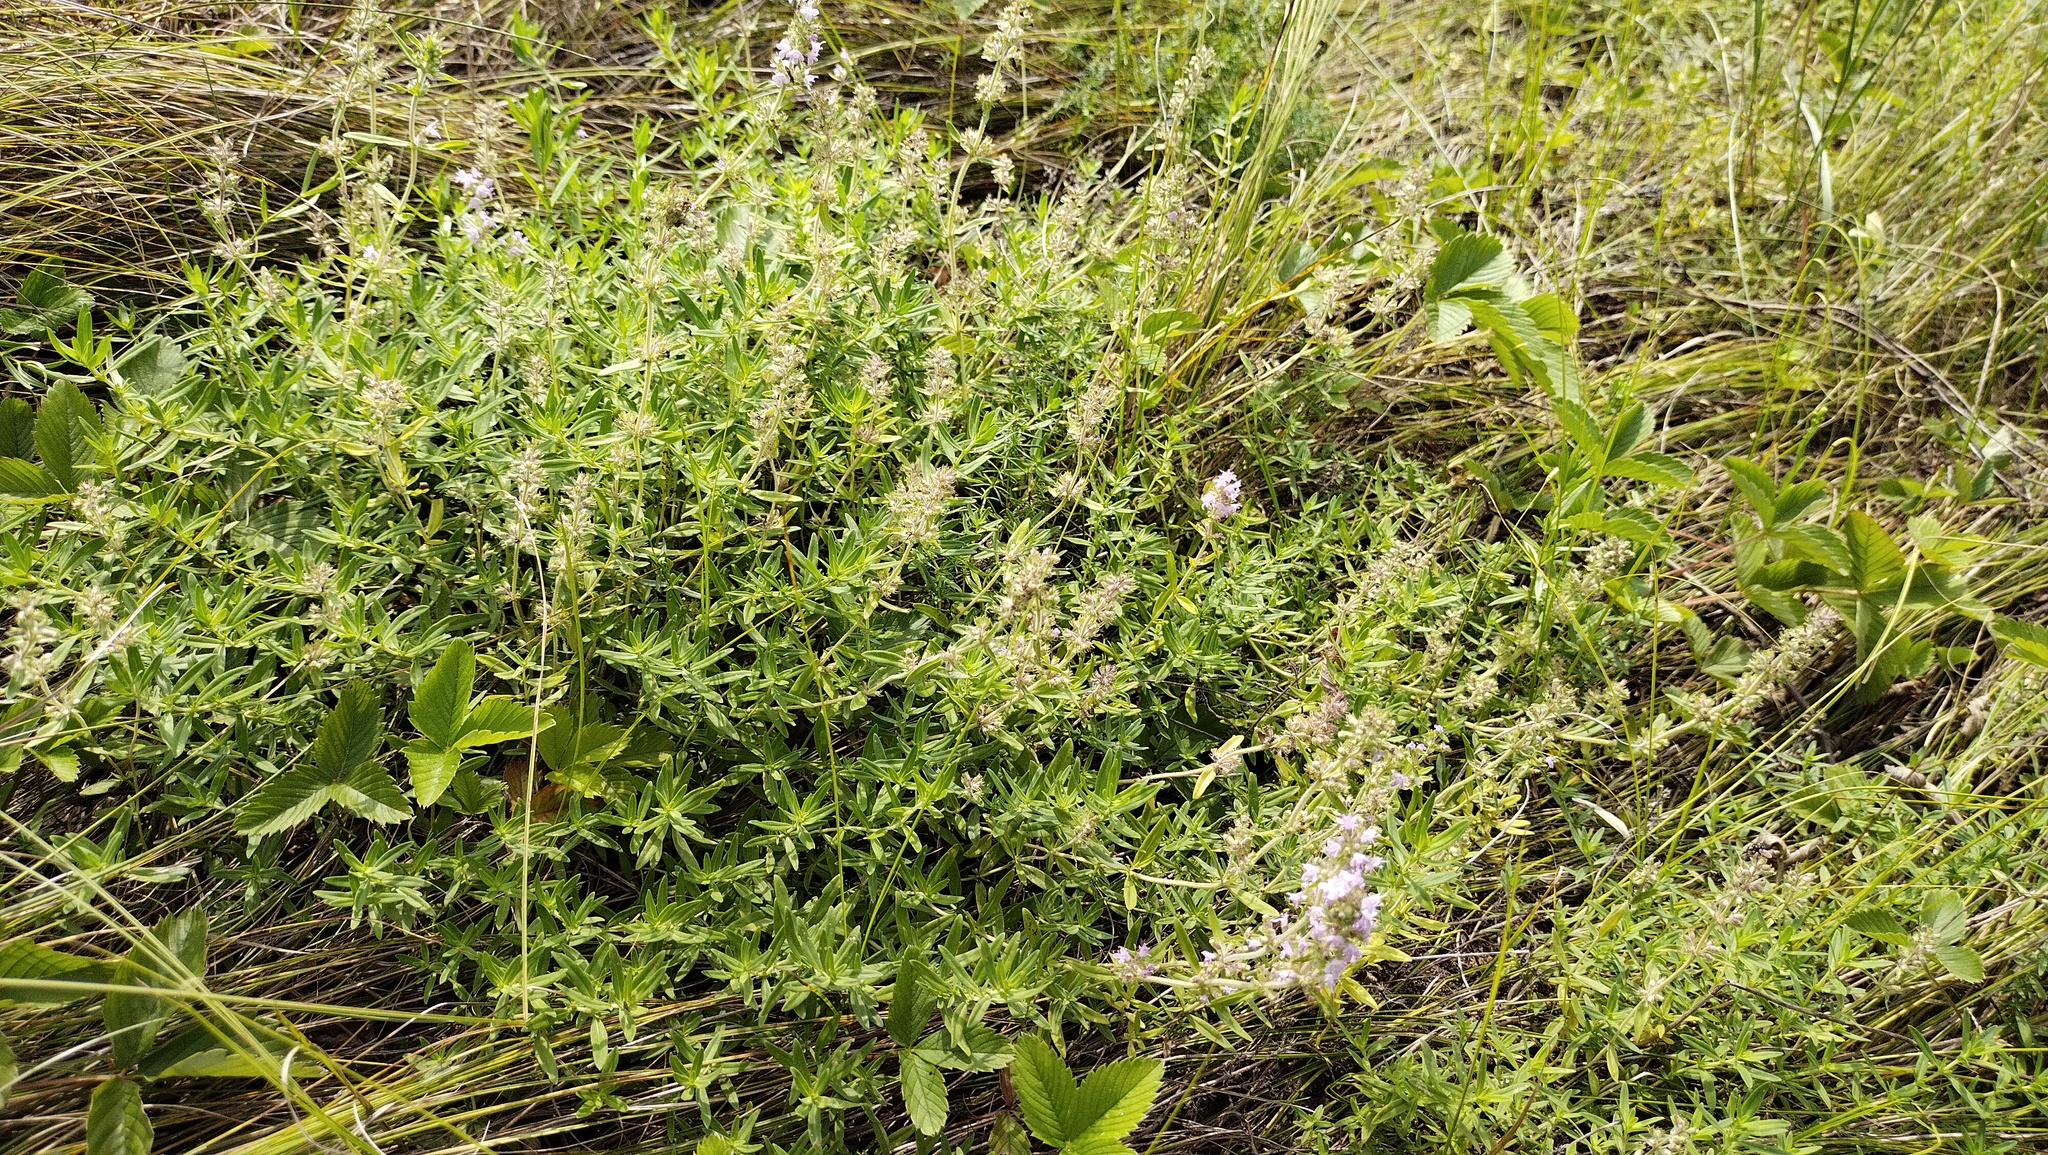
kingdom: Plantae
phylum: Tracheophyta
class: Magnoliopsida
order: Lamiales
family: Lamiaceae
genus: Thymus
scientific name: Thymus pannonicus
